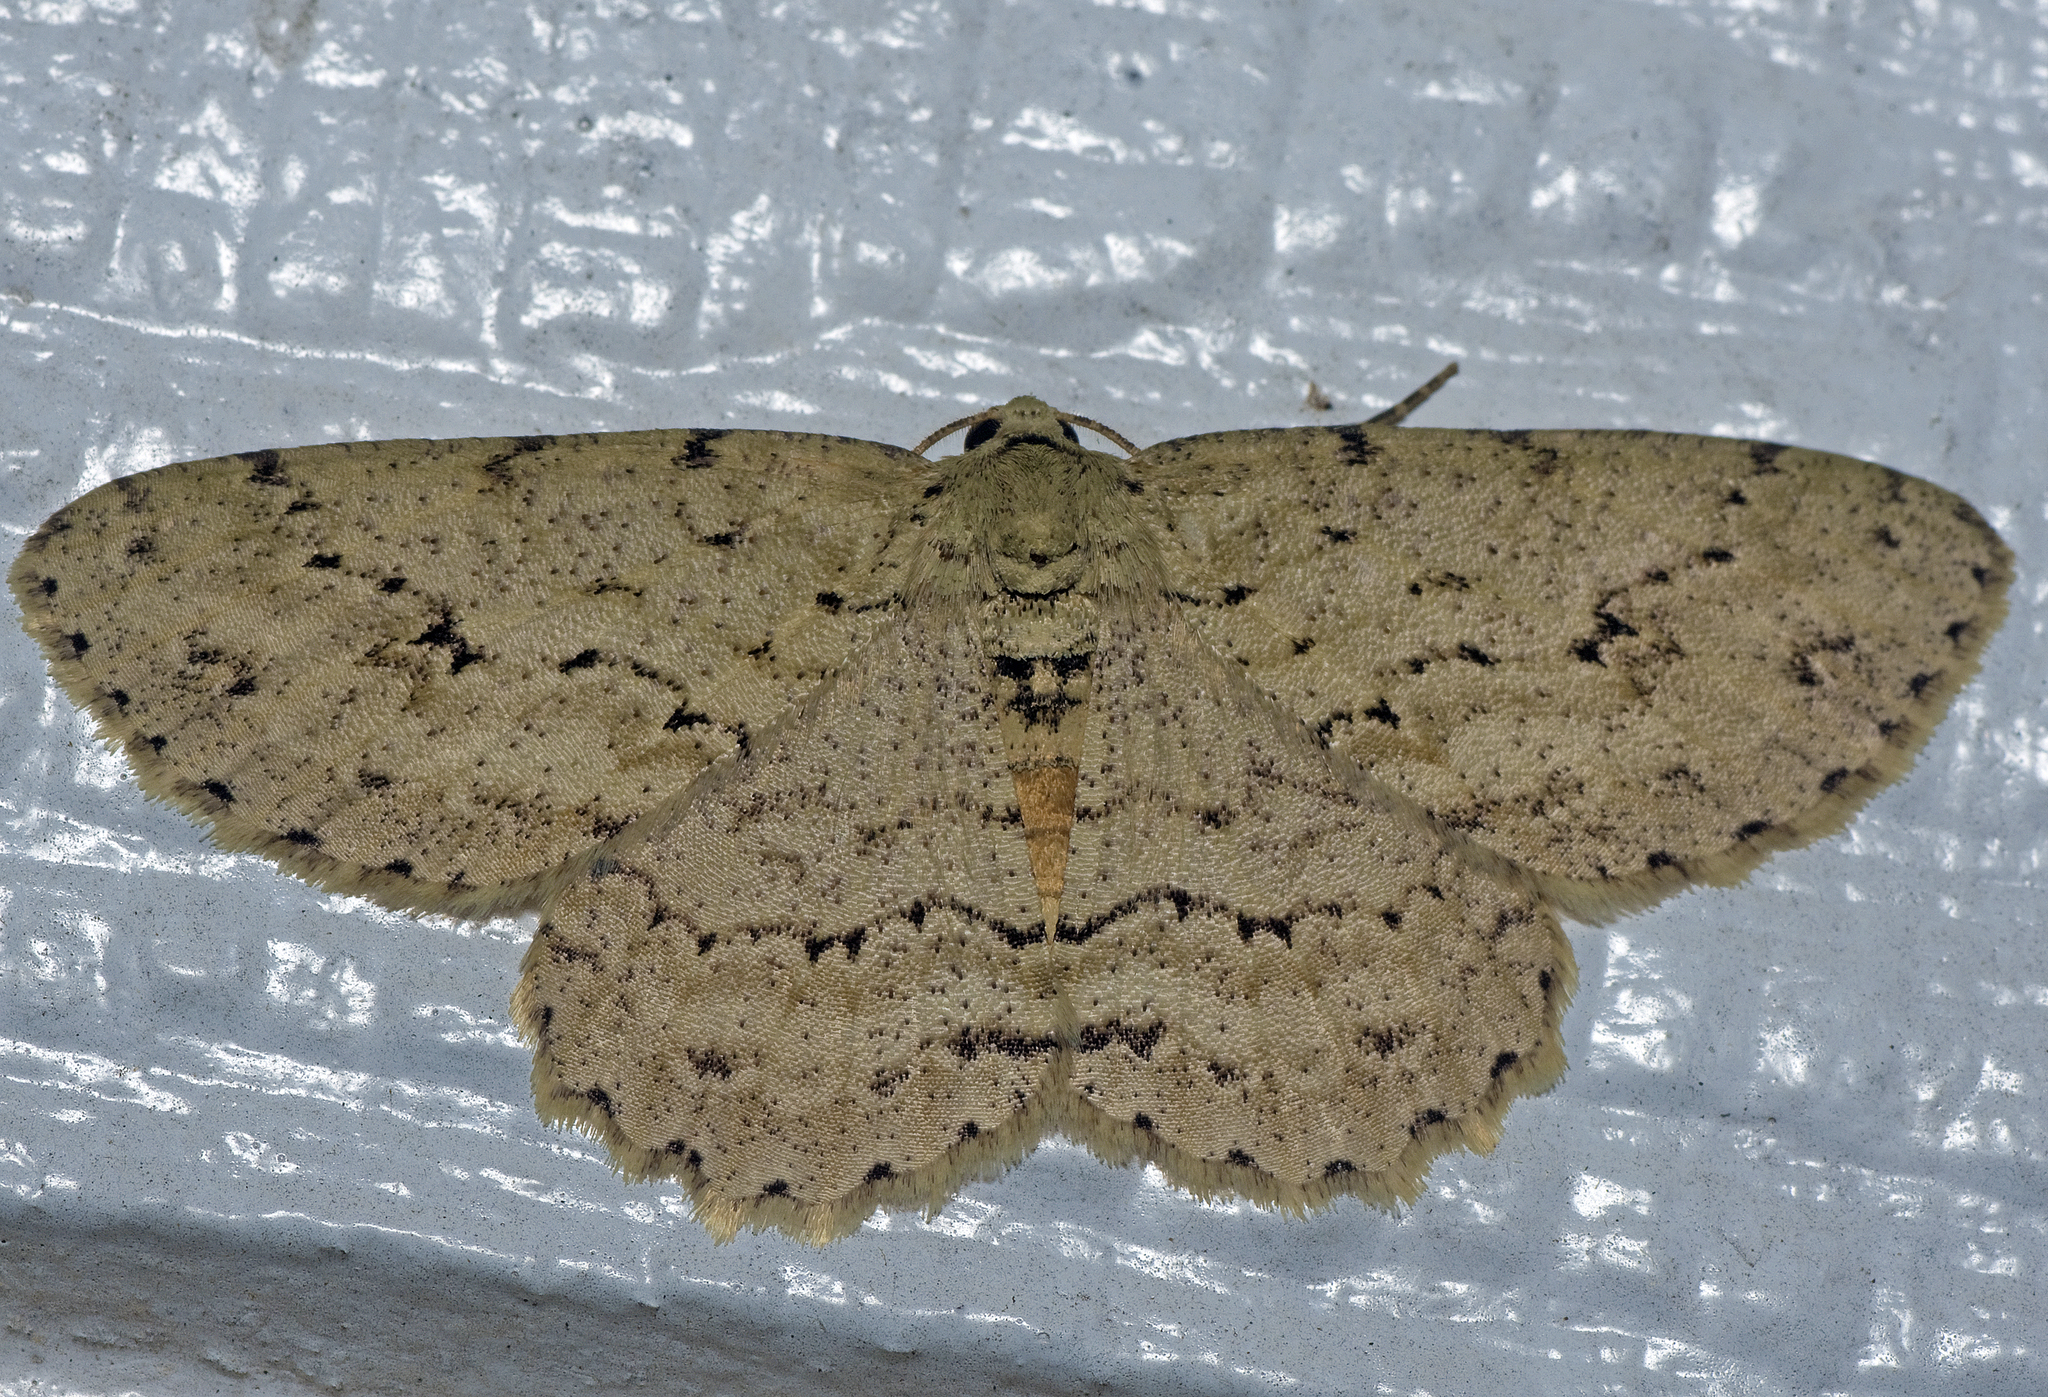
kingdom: Animalia
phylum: Arthropoda
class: Insecta
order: Lepidoptera
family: Geometridae
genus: Ectropis
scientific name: Ectropis bhurmitra
